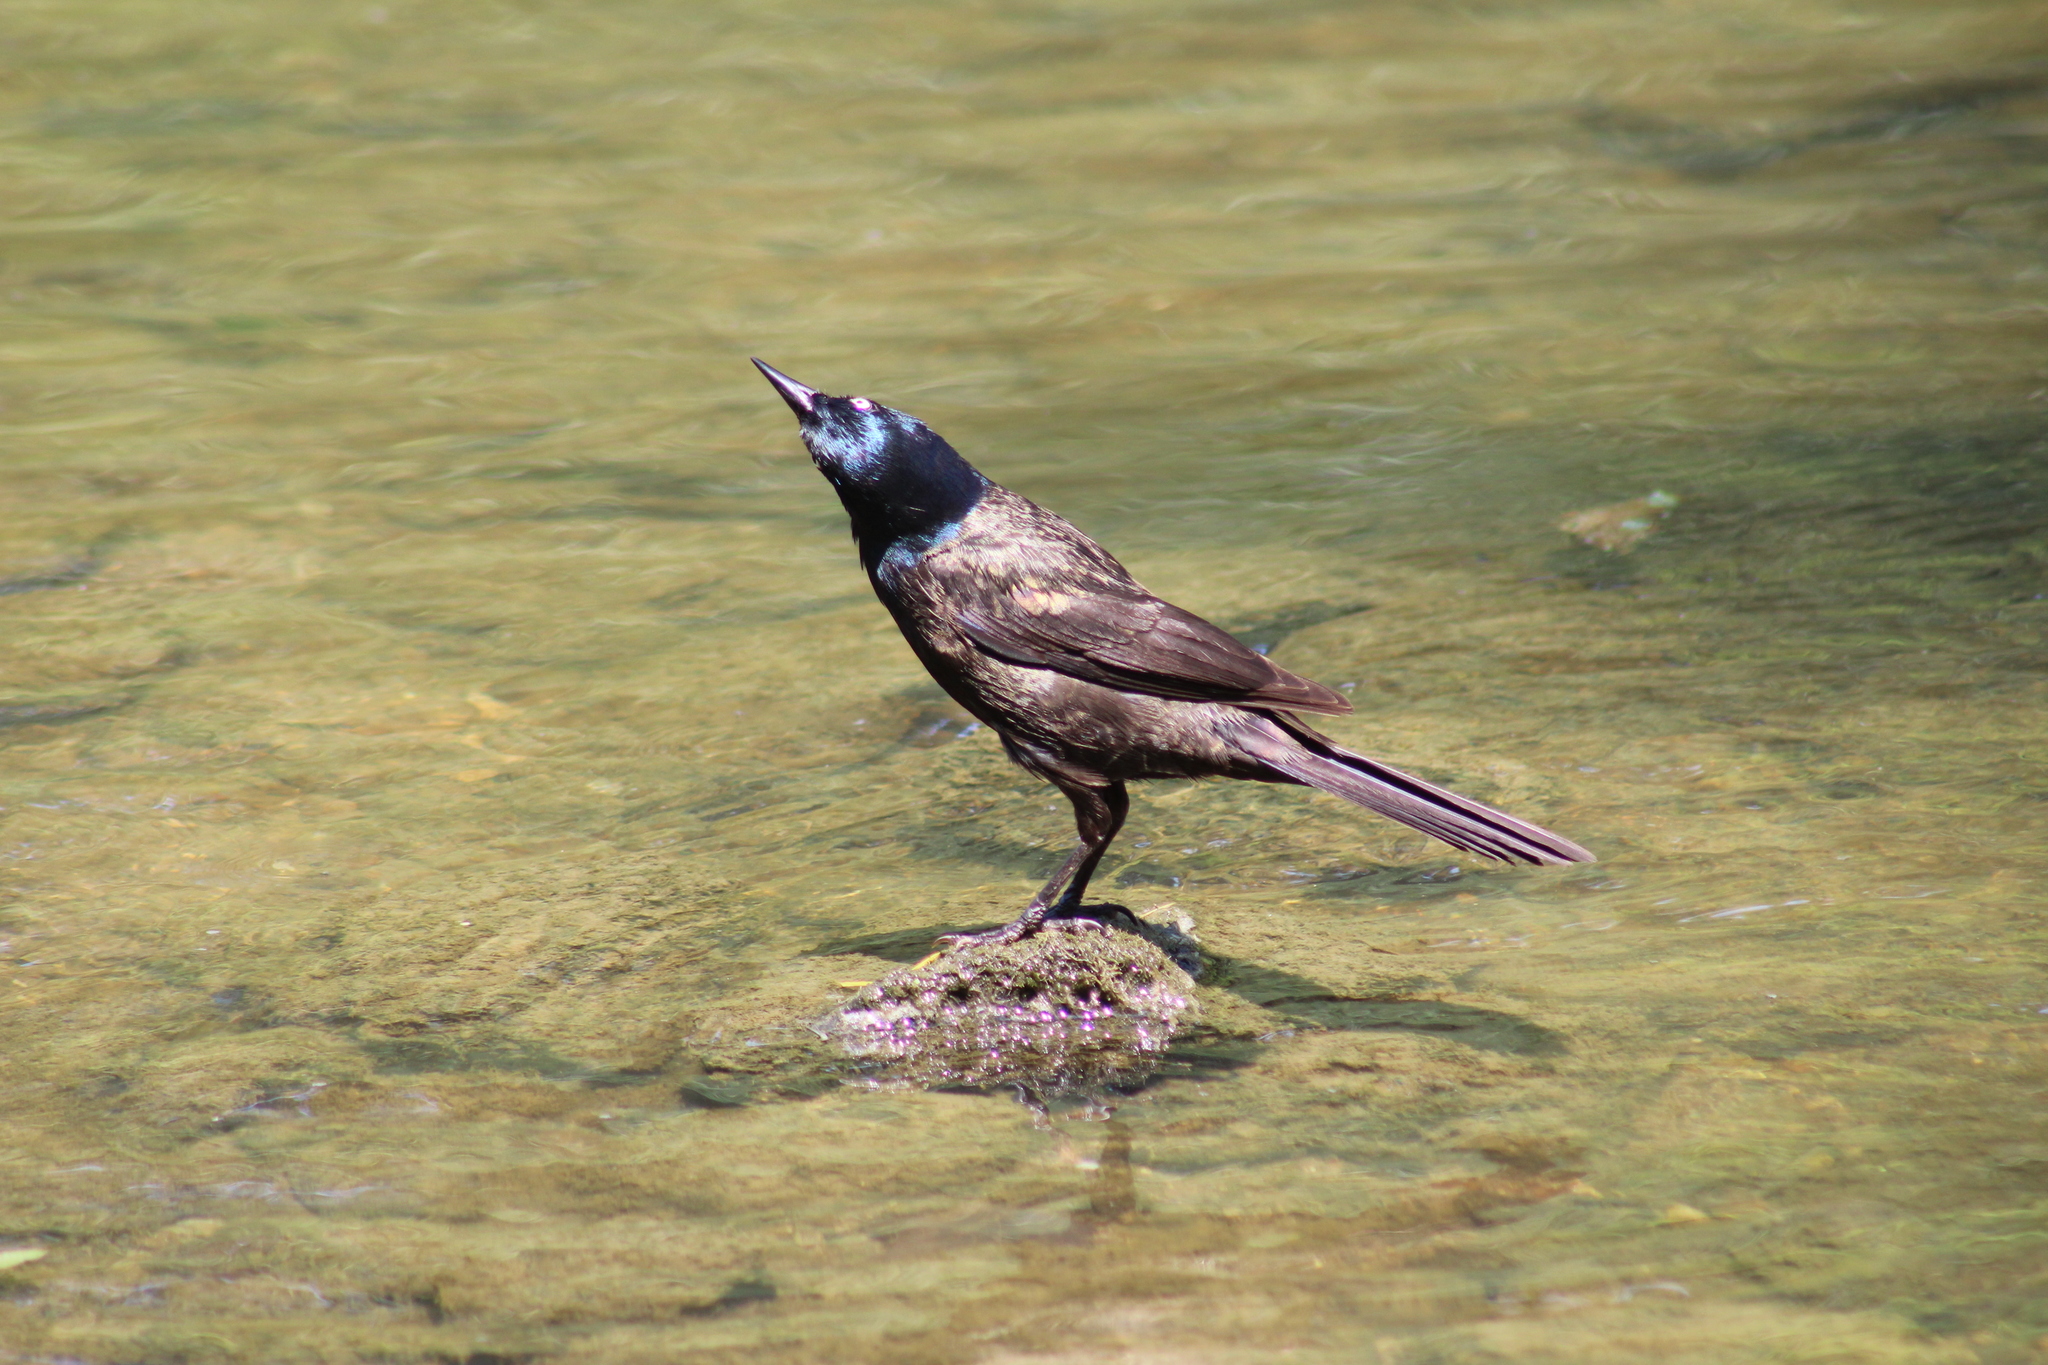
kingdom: Animalia
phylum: Chordata
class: Aves
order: Passeriformes
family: Icteridae
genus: Quiscalus
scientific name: Quiscalus quiscula
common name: Common grackle
